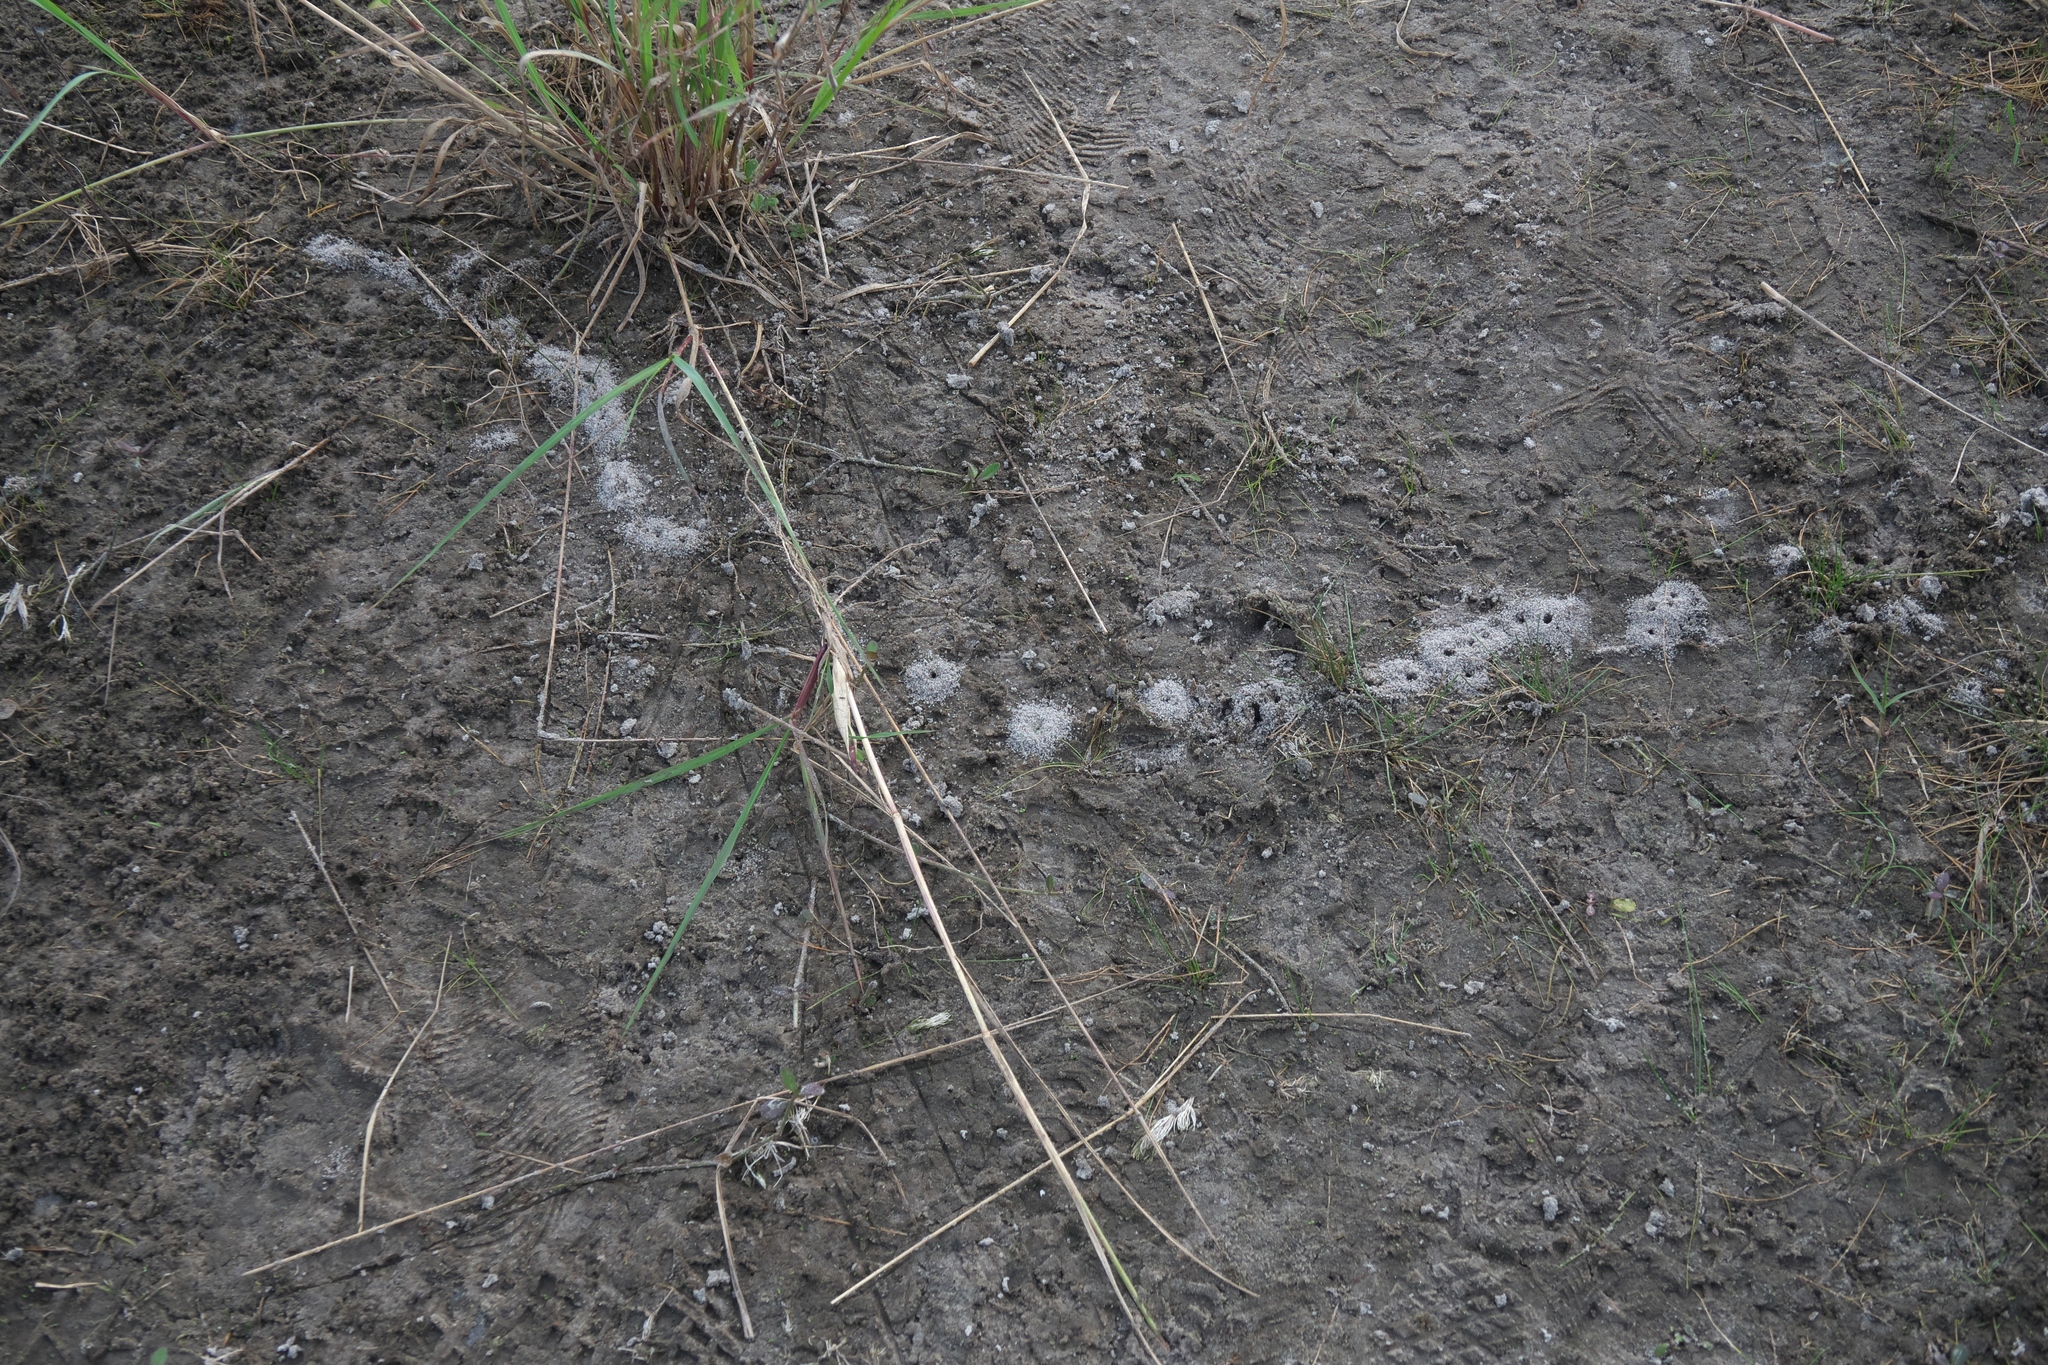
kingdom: Animalia
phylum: Arthropoda
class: Insecta
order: Hymenoptera
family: Formicidae
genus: Solenopsis
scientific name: Solenopsis invicta
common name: Red imported fire ant
